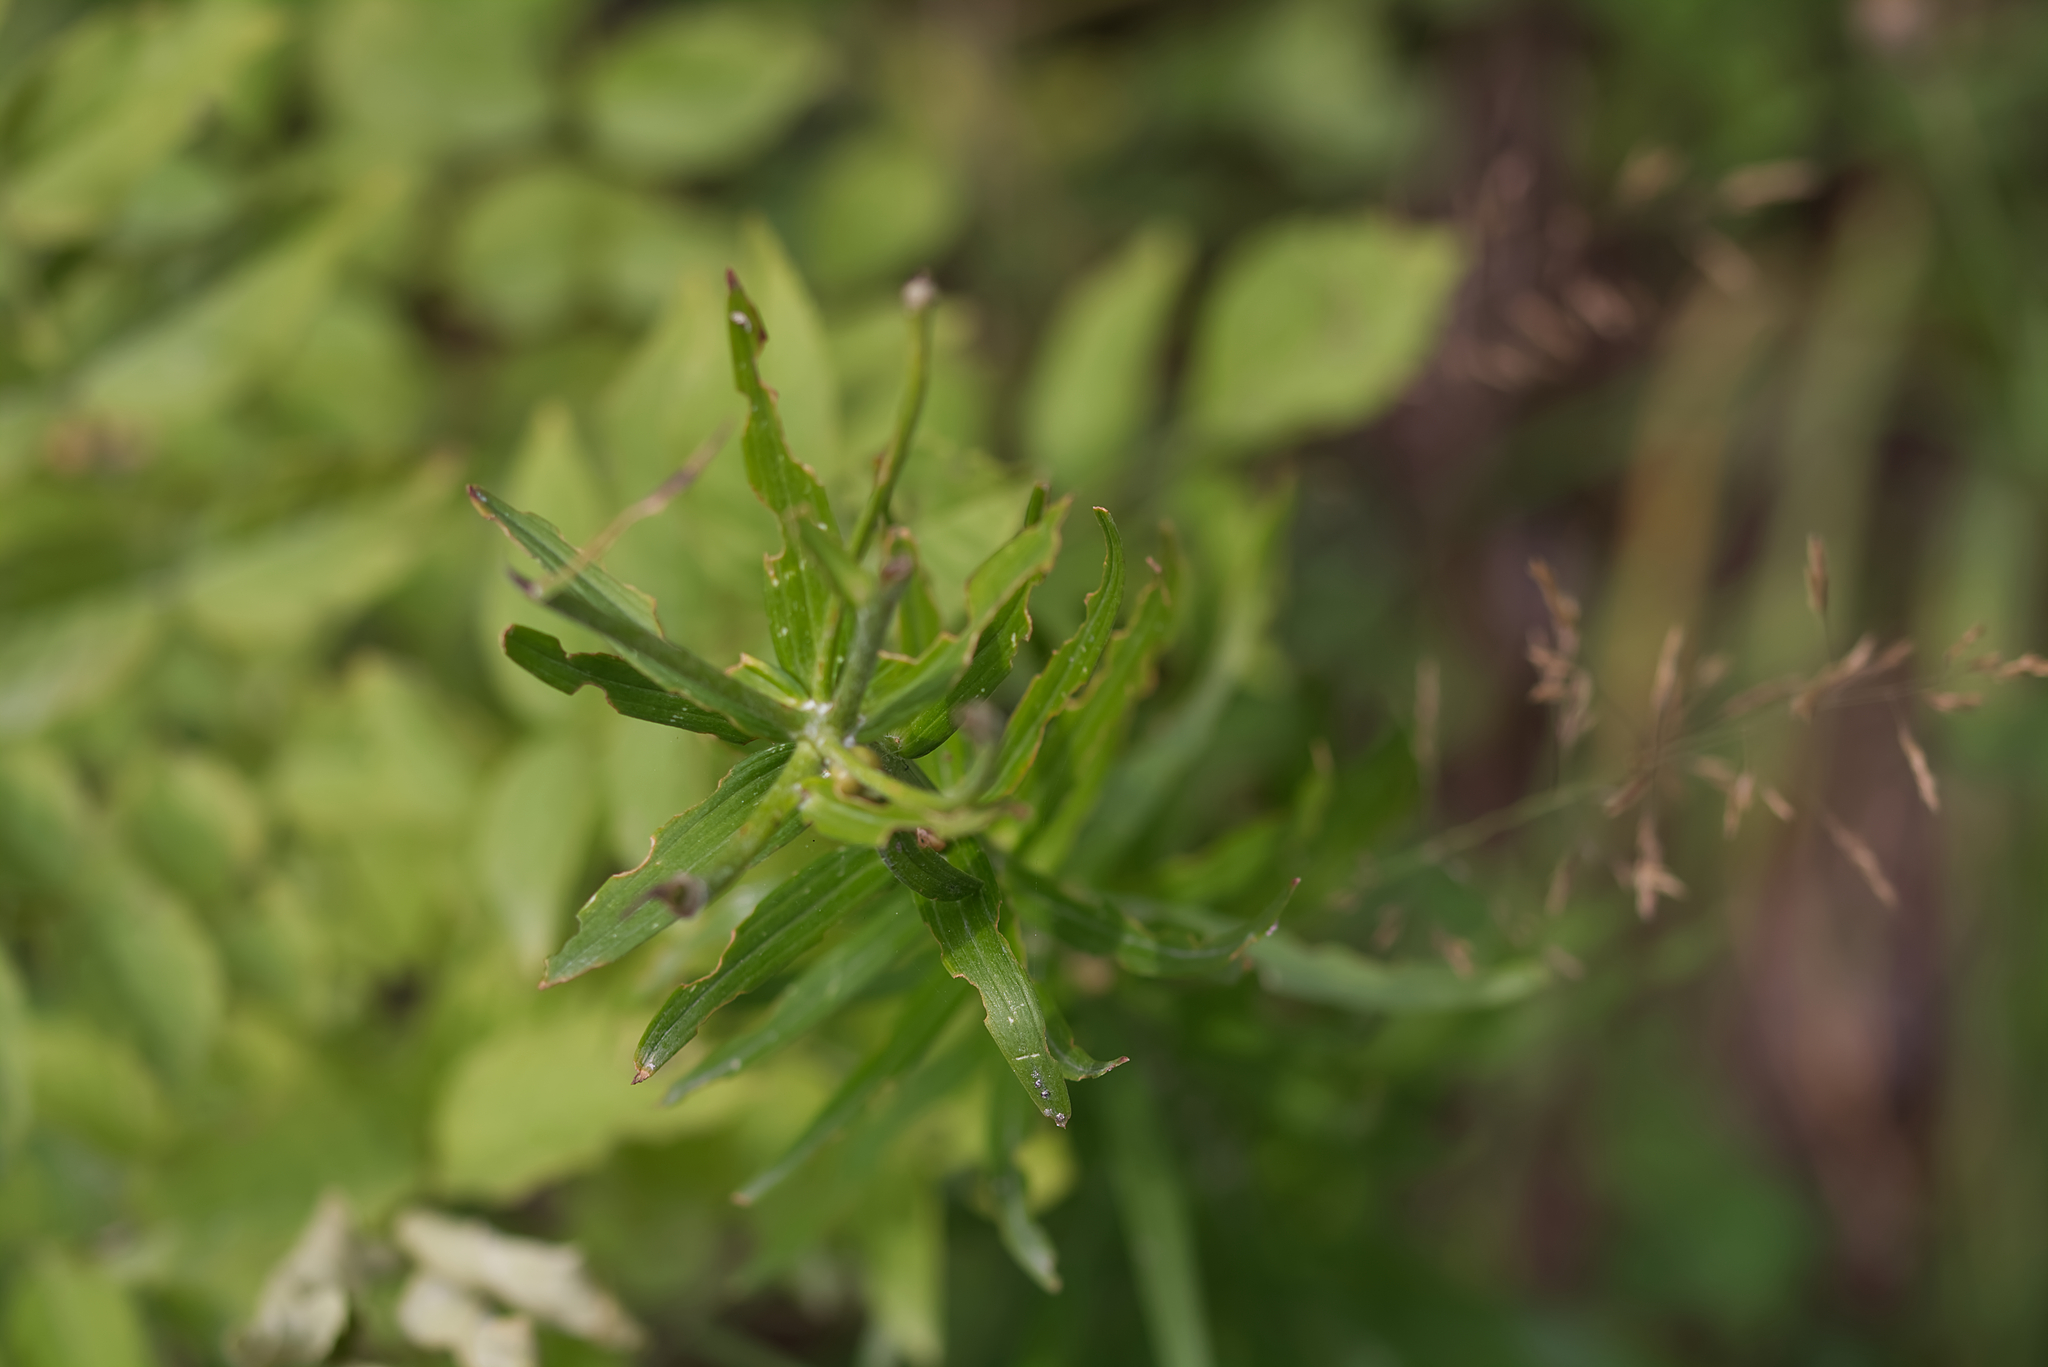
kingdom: Plantae
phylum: Tracheophyta
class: Liliopsida
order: Liliales
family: Liliaceae
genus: Lilium
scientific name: Lilium bulbiferum
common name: Orange lily
